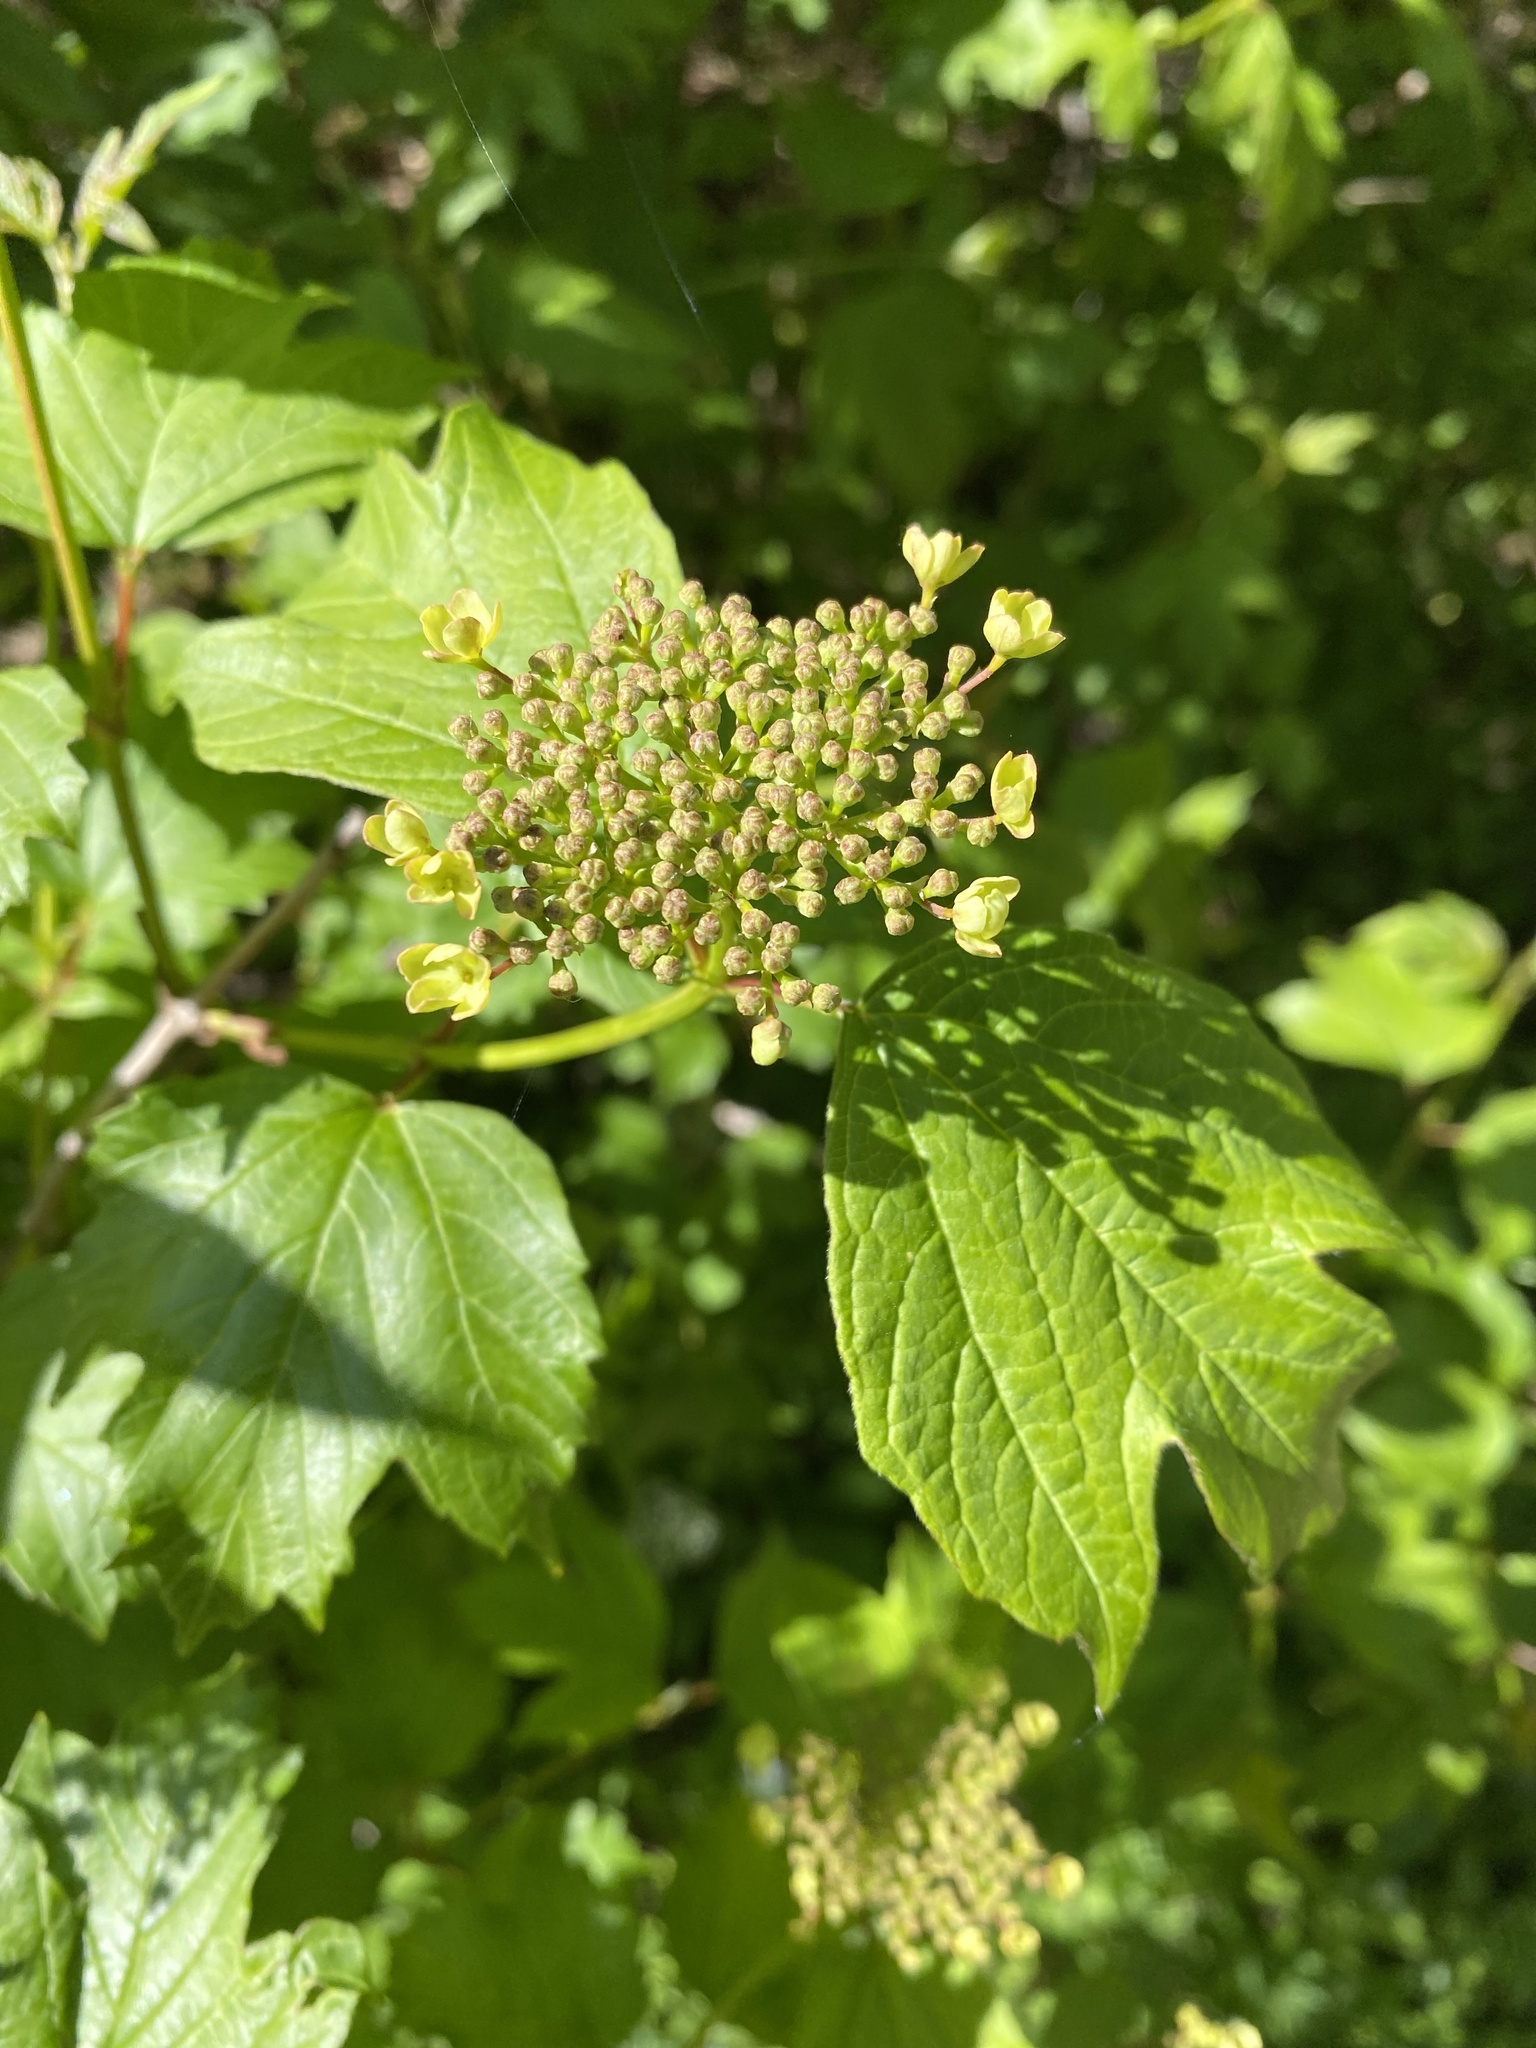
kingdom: Plantae
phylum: Tracheophyta
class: Magnoliopsida
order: Dipsacales
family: Viburnaceae
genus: Viburnum
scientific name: Viburnum opulus
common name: Guelder-rose
